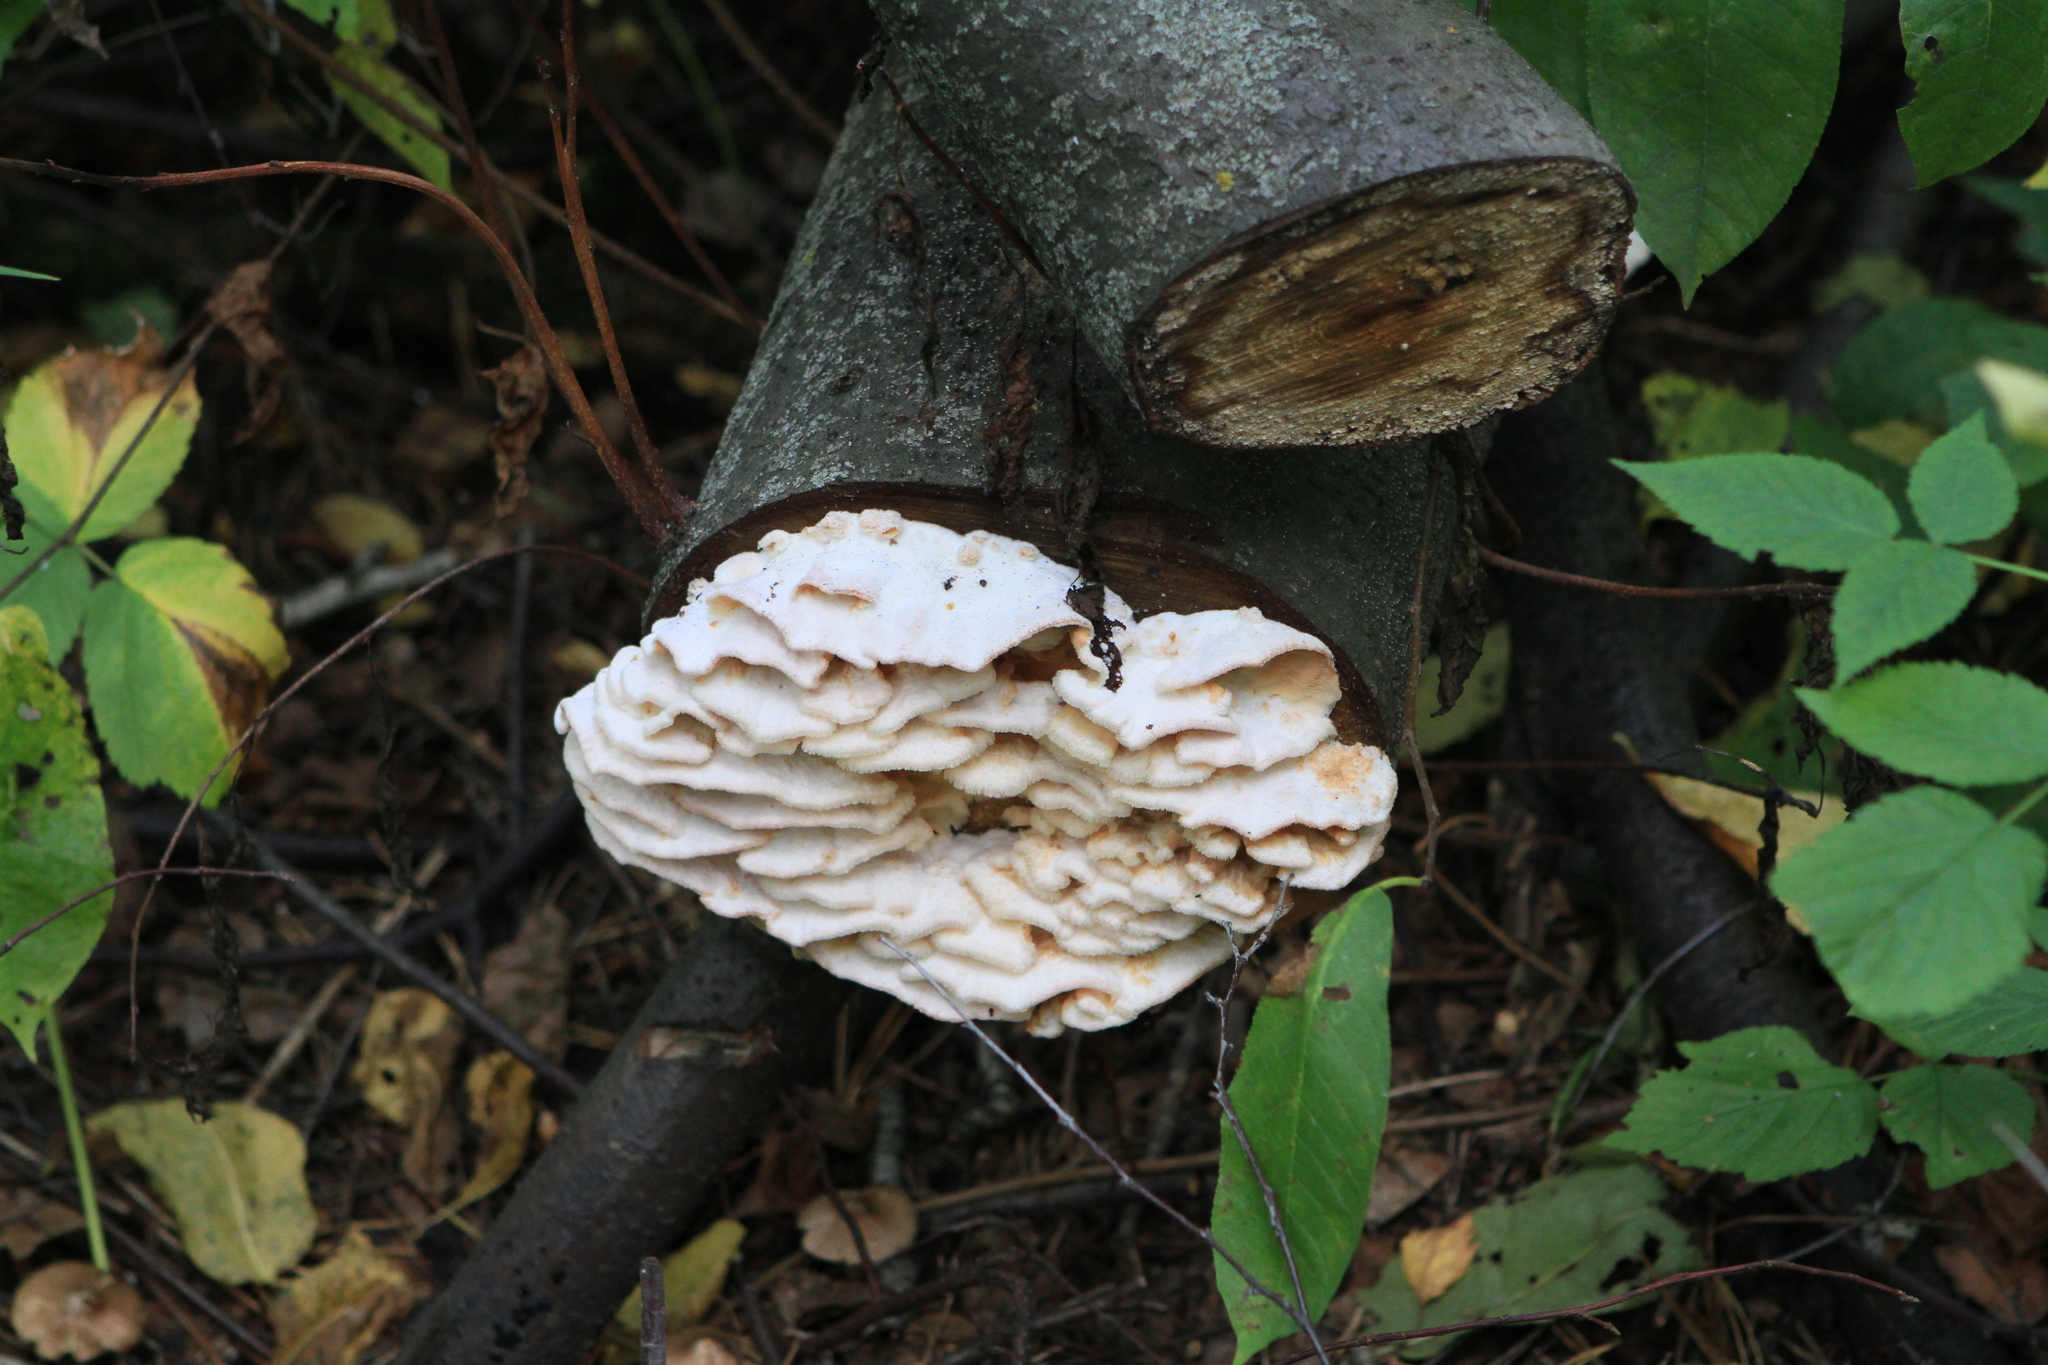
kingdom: Fungi
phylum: Basidiomycota
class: Agaricomycetes
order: Polyporales
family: Meruliaceae
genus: Phlebia
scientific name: Phlebia tremellosa
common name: Jelly rot
